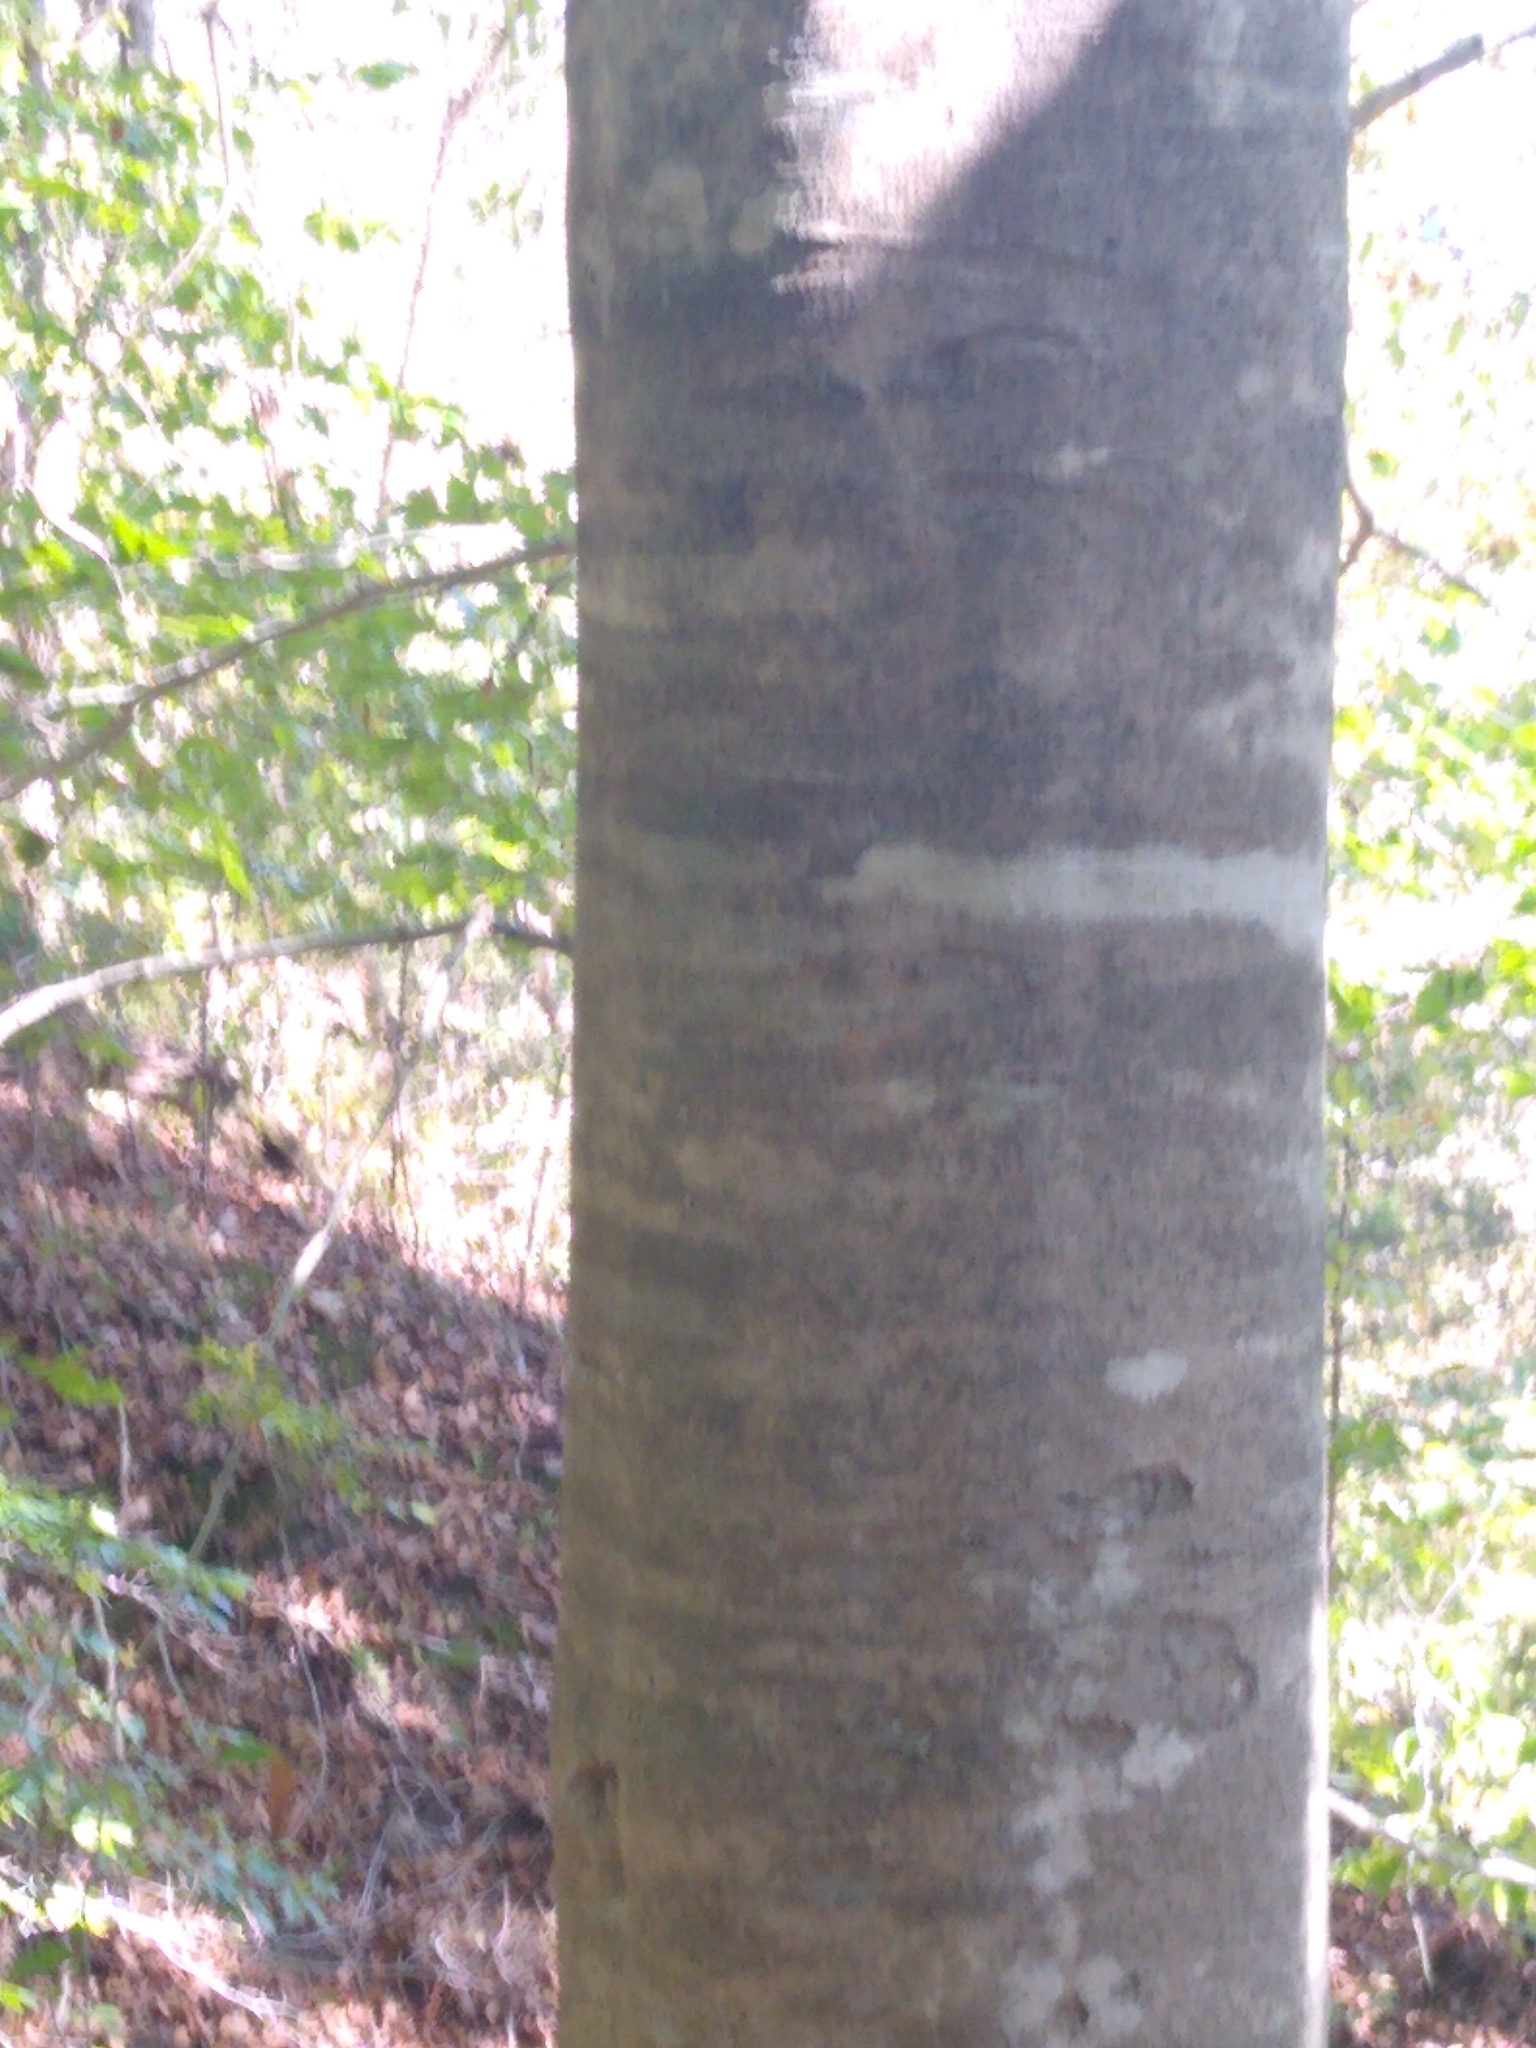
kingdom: Plantae
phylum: Tracheophyta
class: Magnoliopsida
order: Fagales
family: Fagaceae
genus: Fagus
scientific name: Fagus grandifolia
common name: American beech
